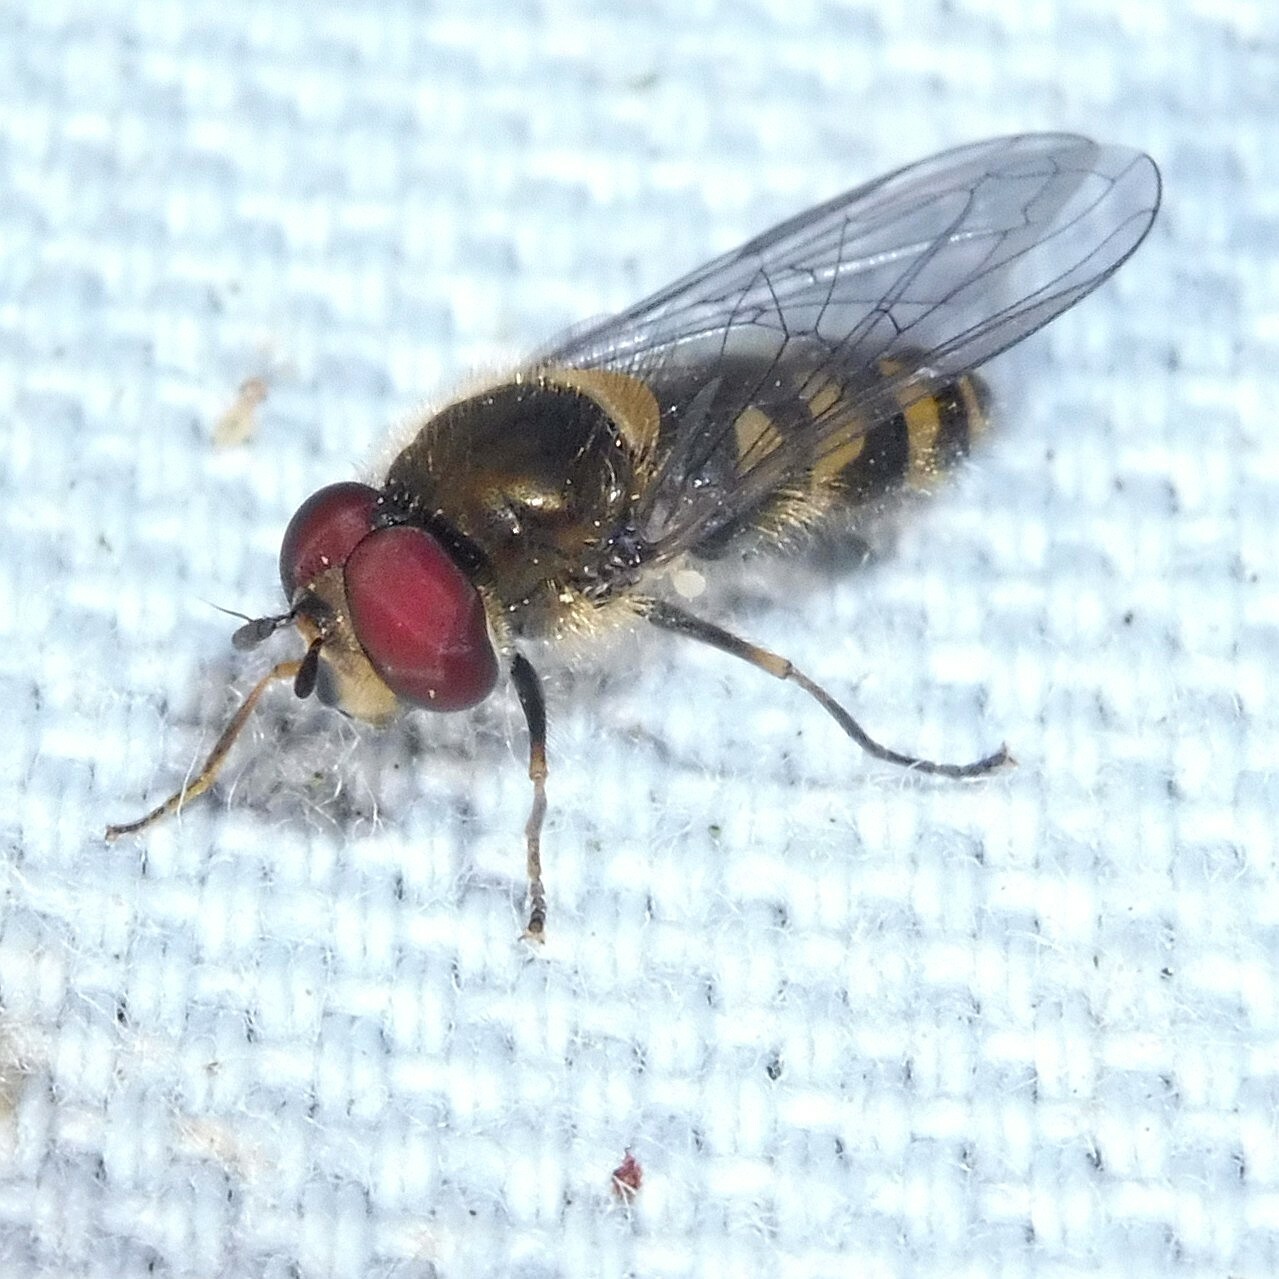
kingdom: Animalia
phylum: Arthropoda
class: Insecta
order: Diptera
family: Syrphidae
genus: Parasyrphus
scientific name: Parasyrphus punctulatus
